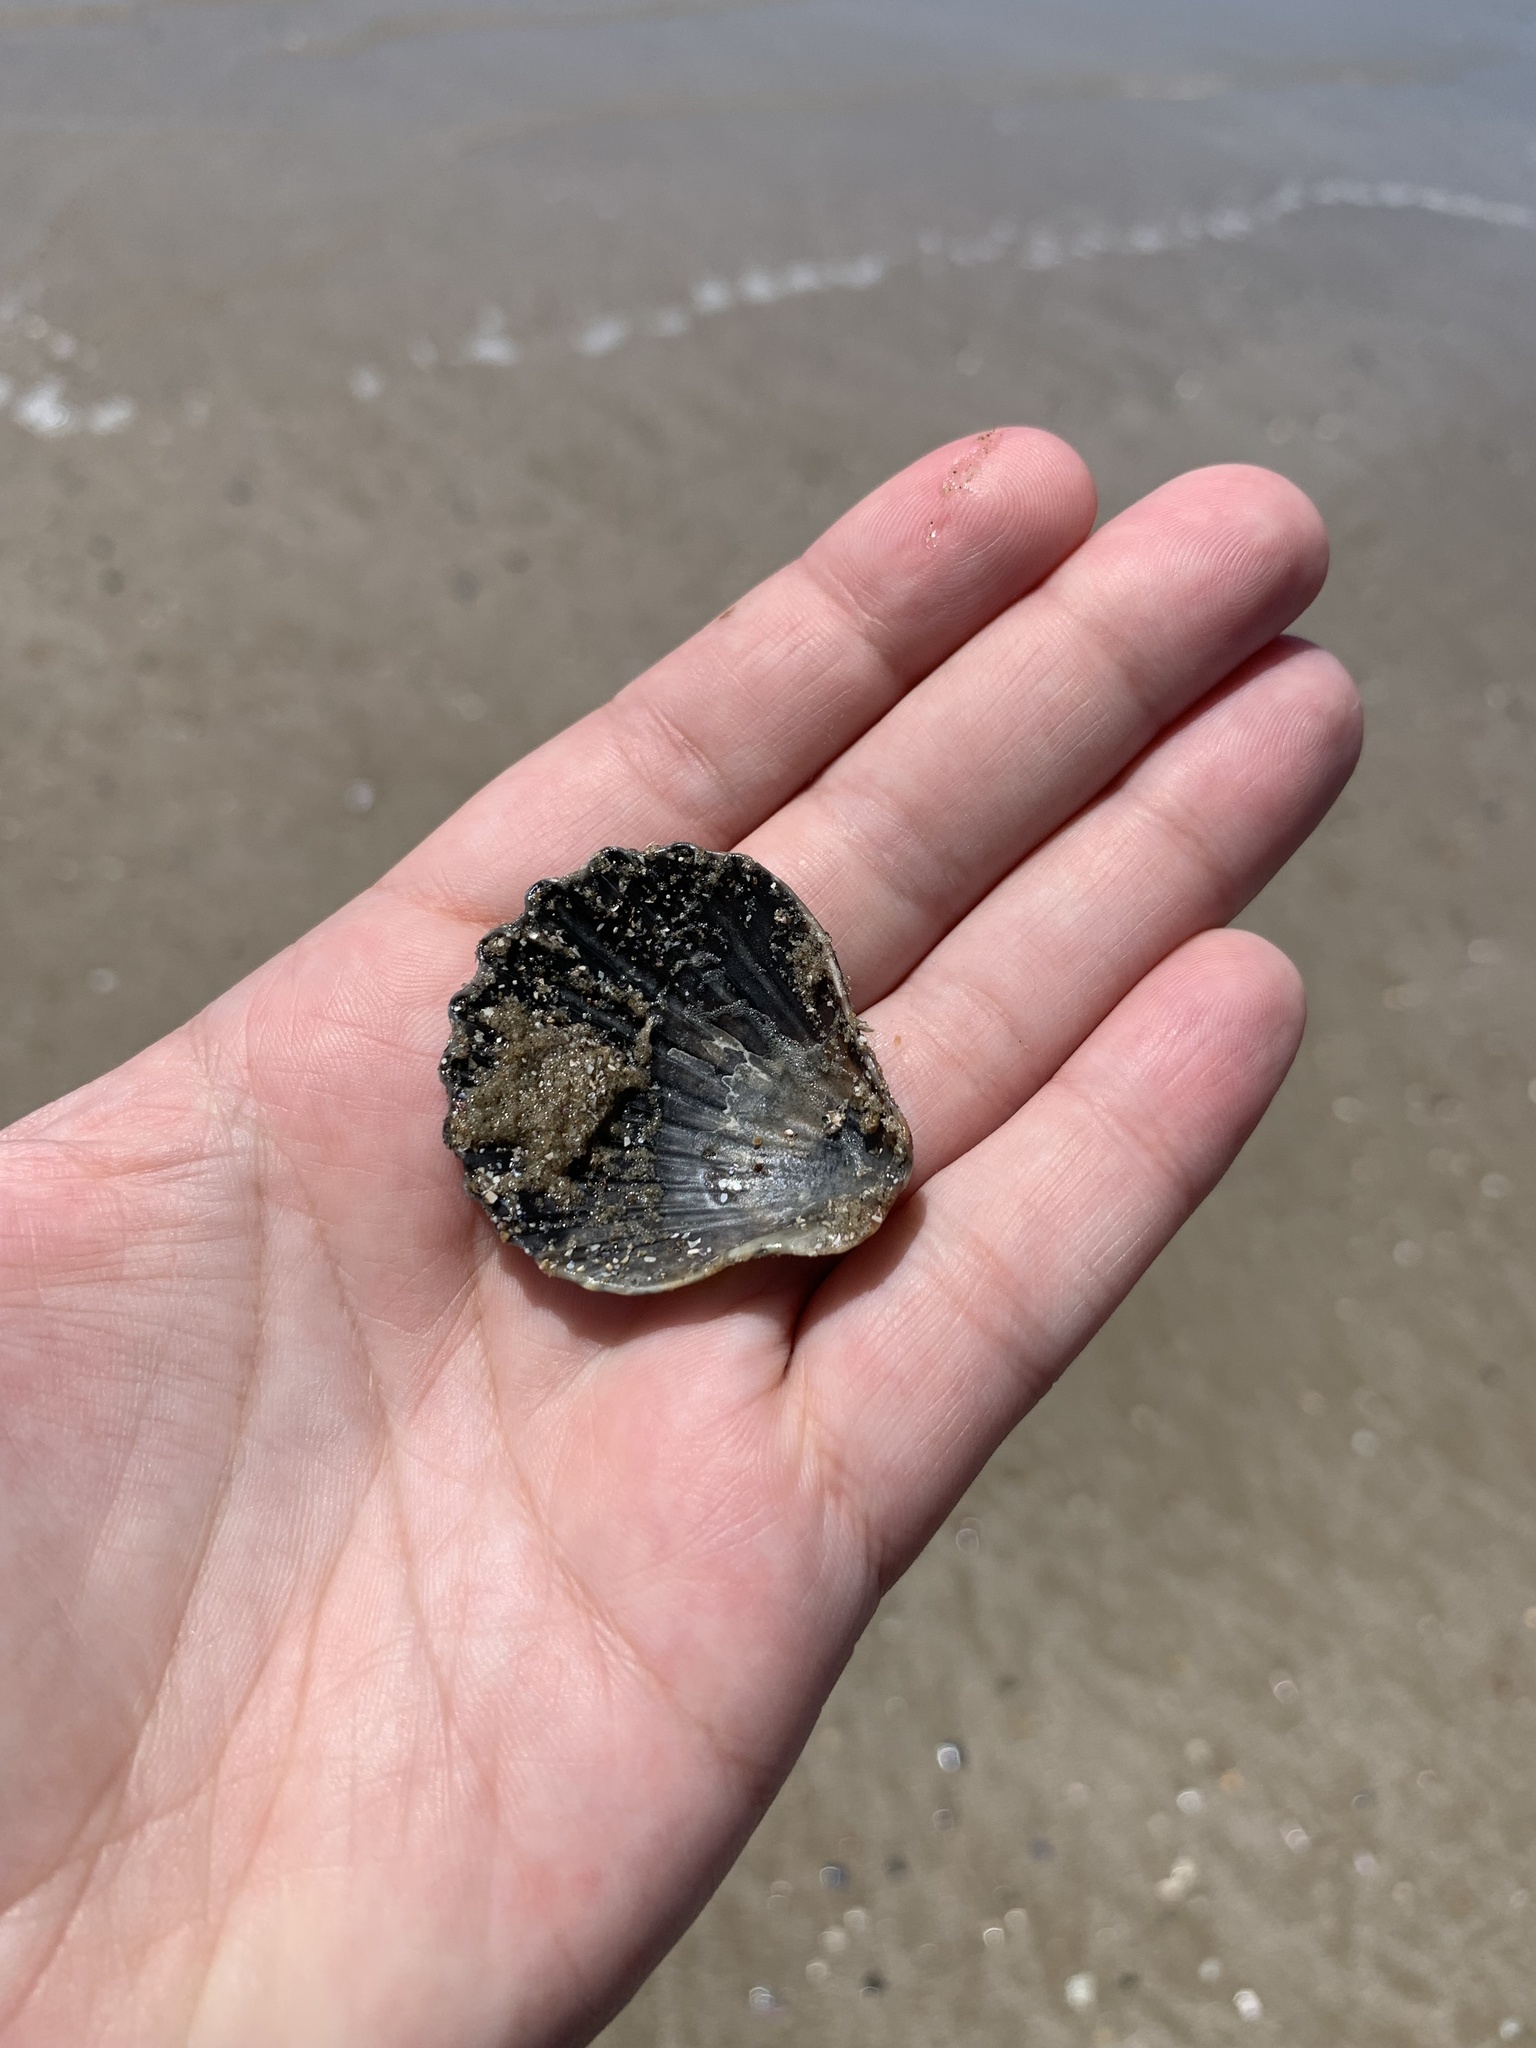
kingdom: Animalia
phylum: Mollusca
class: Bivalvia
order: Pectinida
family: Pectinidae
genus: Aequipecten
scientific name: Aequipecten tehuelchus
